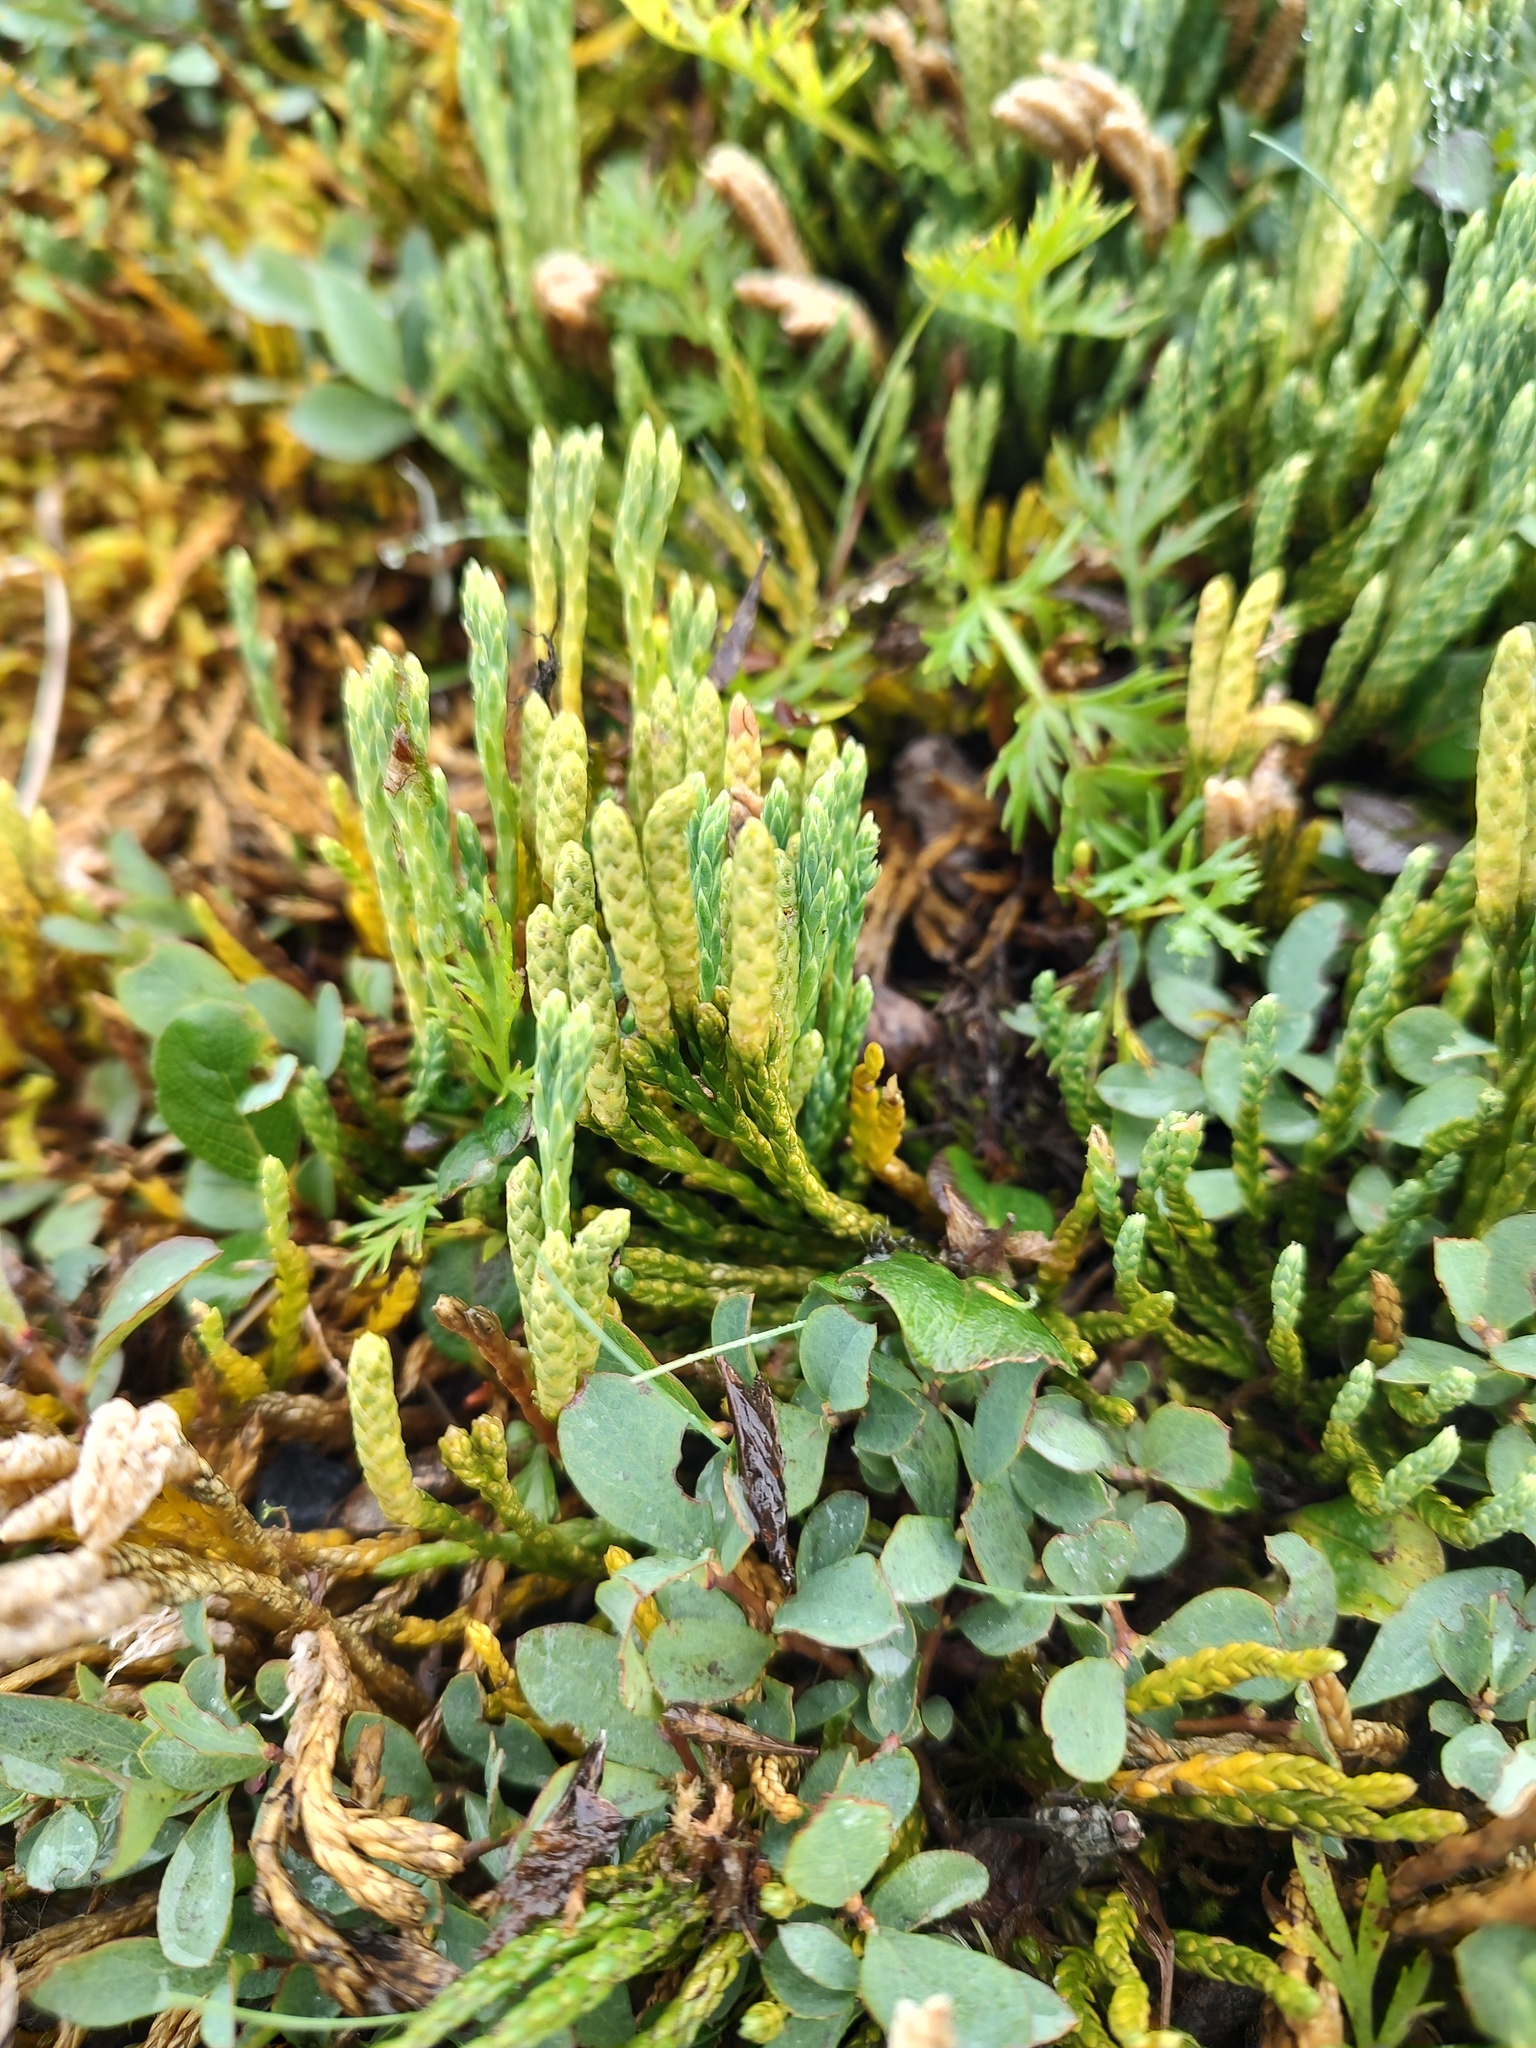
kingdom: Plantae
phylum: Tracheophyta
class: Lycopodiopsida
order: Lycopodiales
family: Lycopodiaceae
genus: Diphasiastrum
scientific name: Diphasiastrum alpinum
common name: Alpine clubmoss
